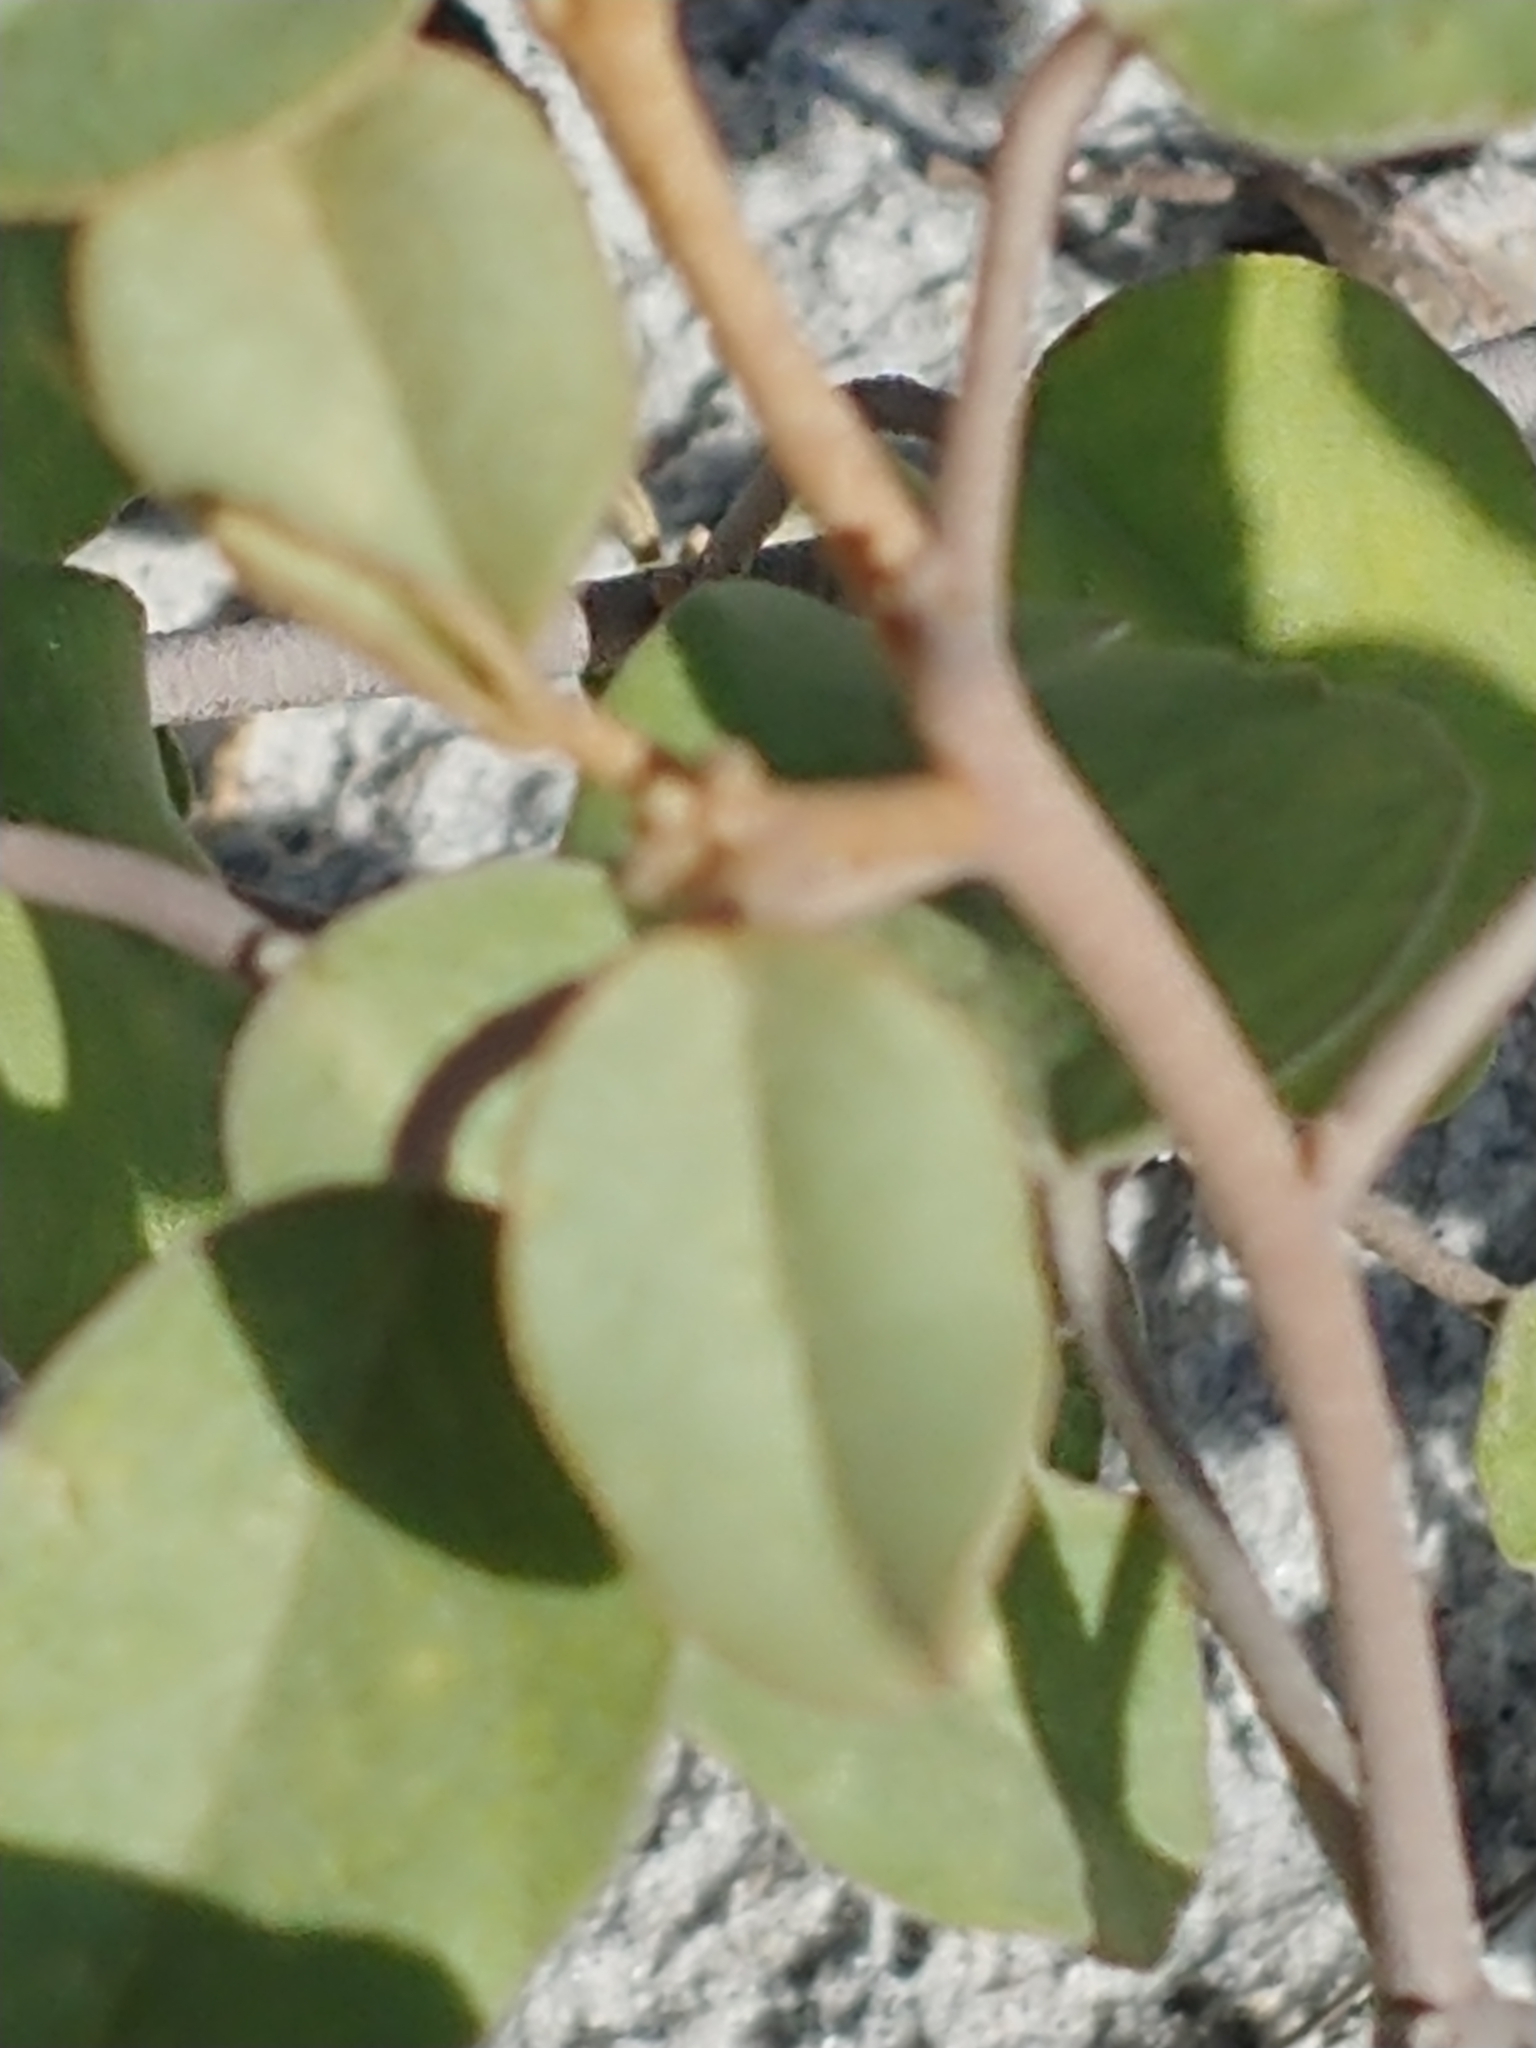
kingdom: Plantae
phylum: Tracheophyta
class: Magnoliopsida
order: Malpighiales
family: Euphorbiaceae
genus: Croton
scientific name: Croton punctatus
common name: Beach-tea
